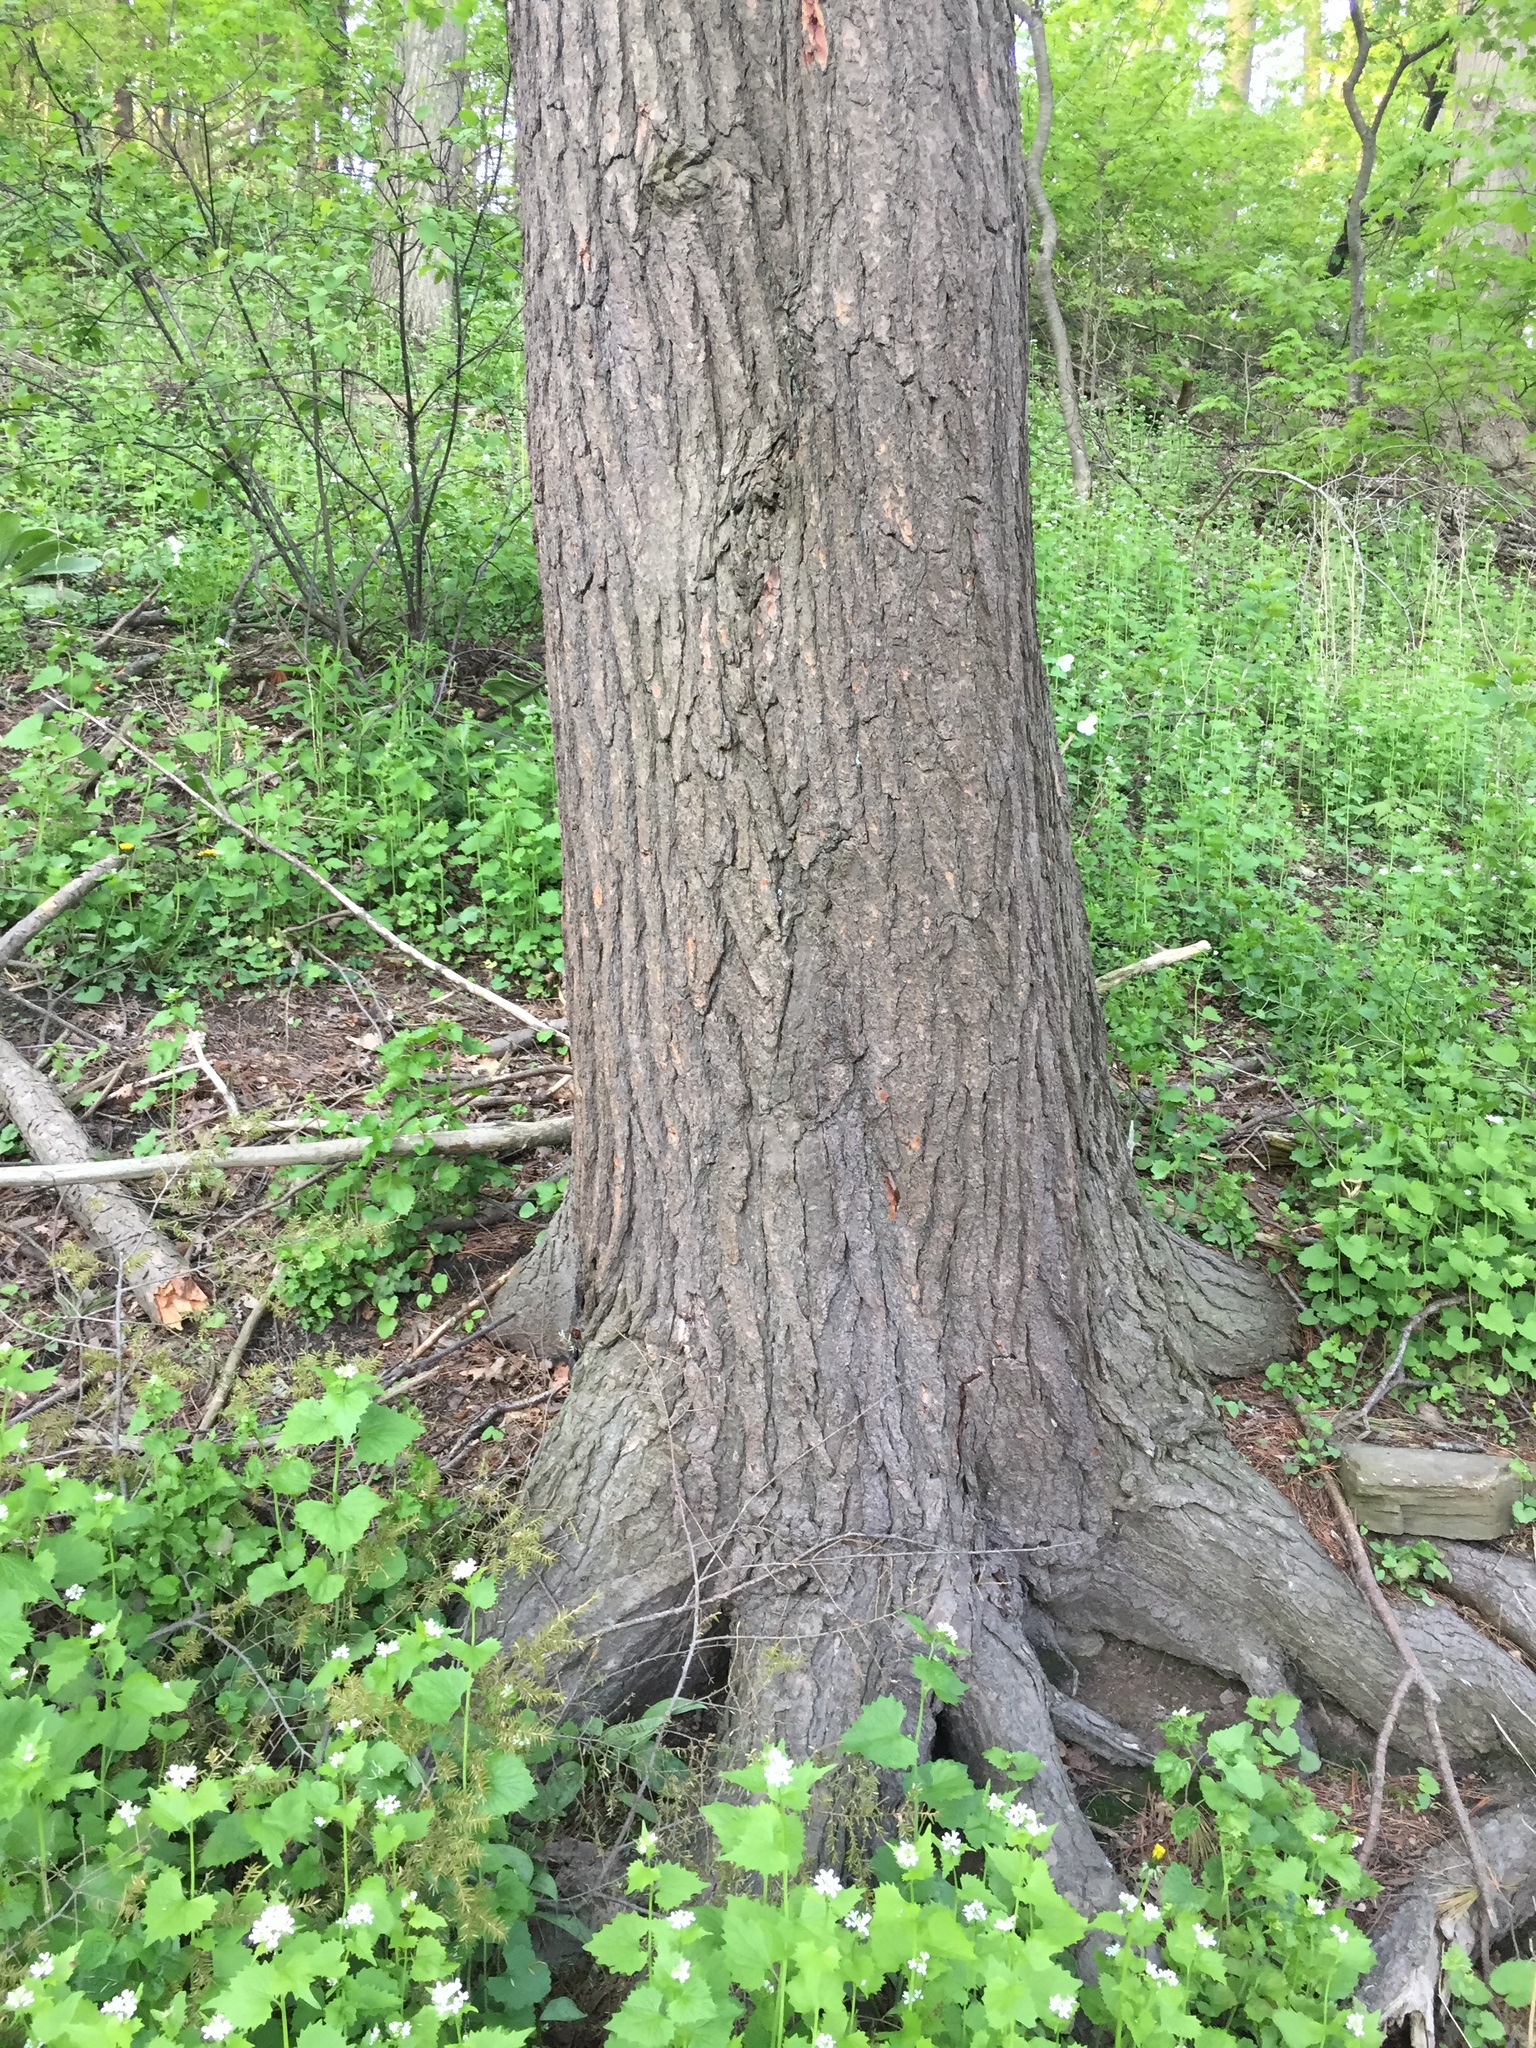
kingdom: Plantae
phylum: Tracheophyta
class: Pinopsida
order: Pinales
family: Pinaceae
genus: Tsuga
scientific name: Tsuga canadensis
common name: Eastern hemlock
